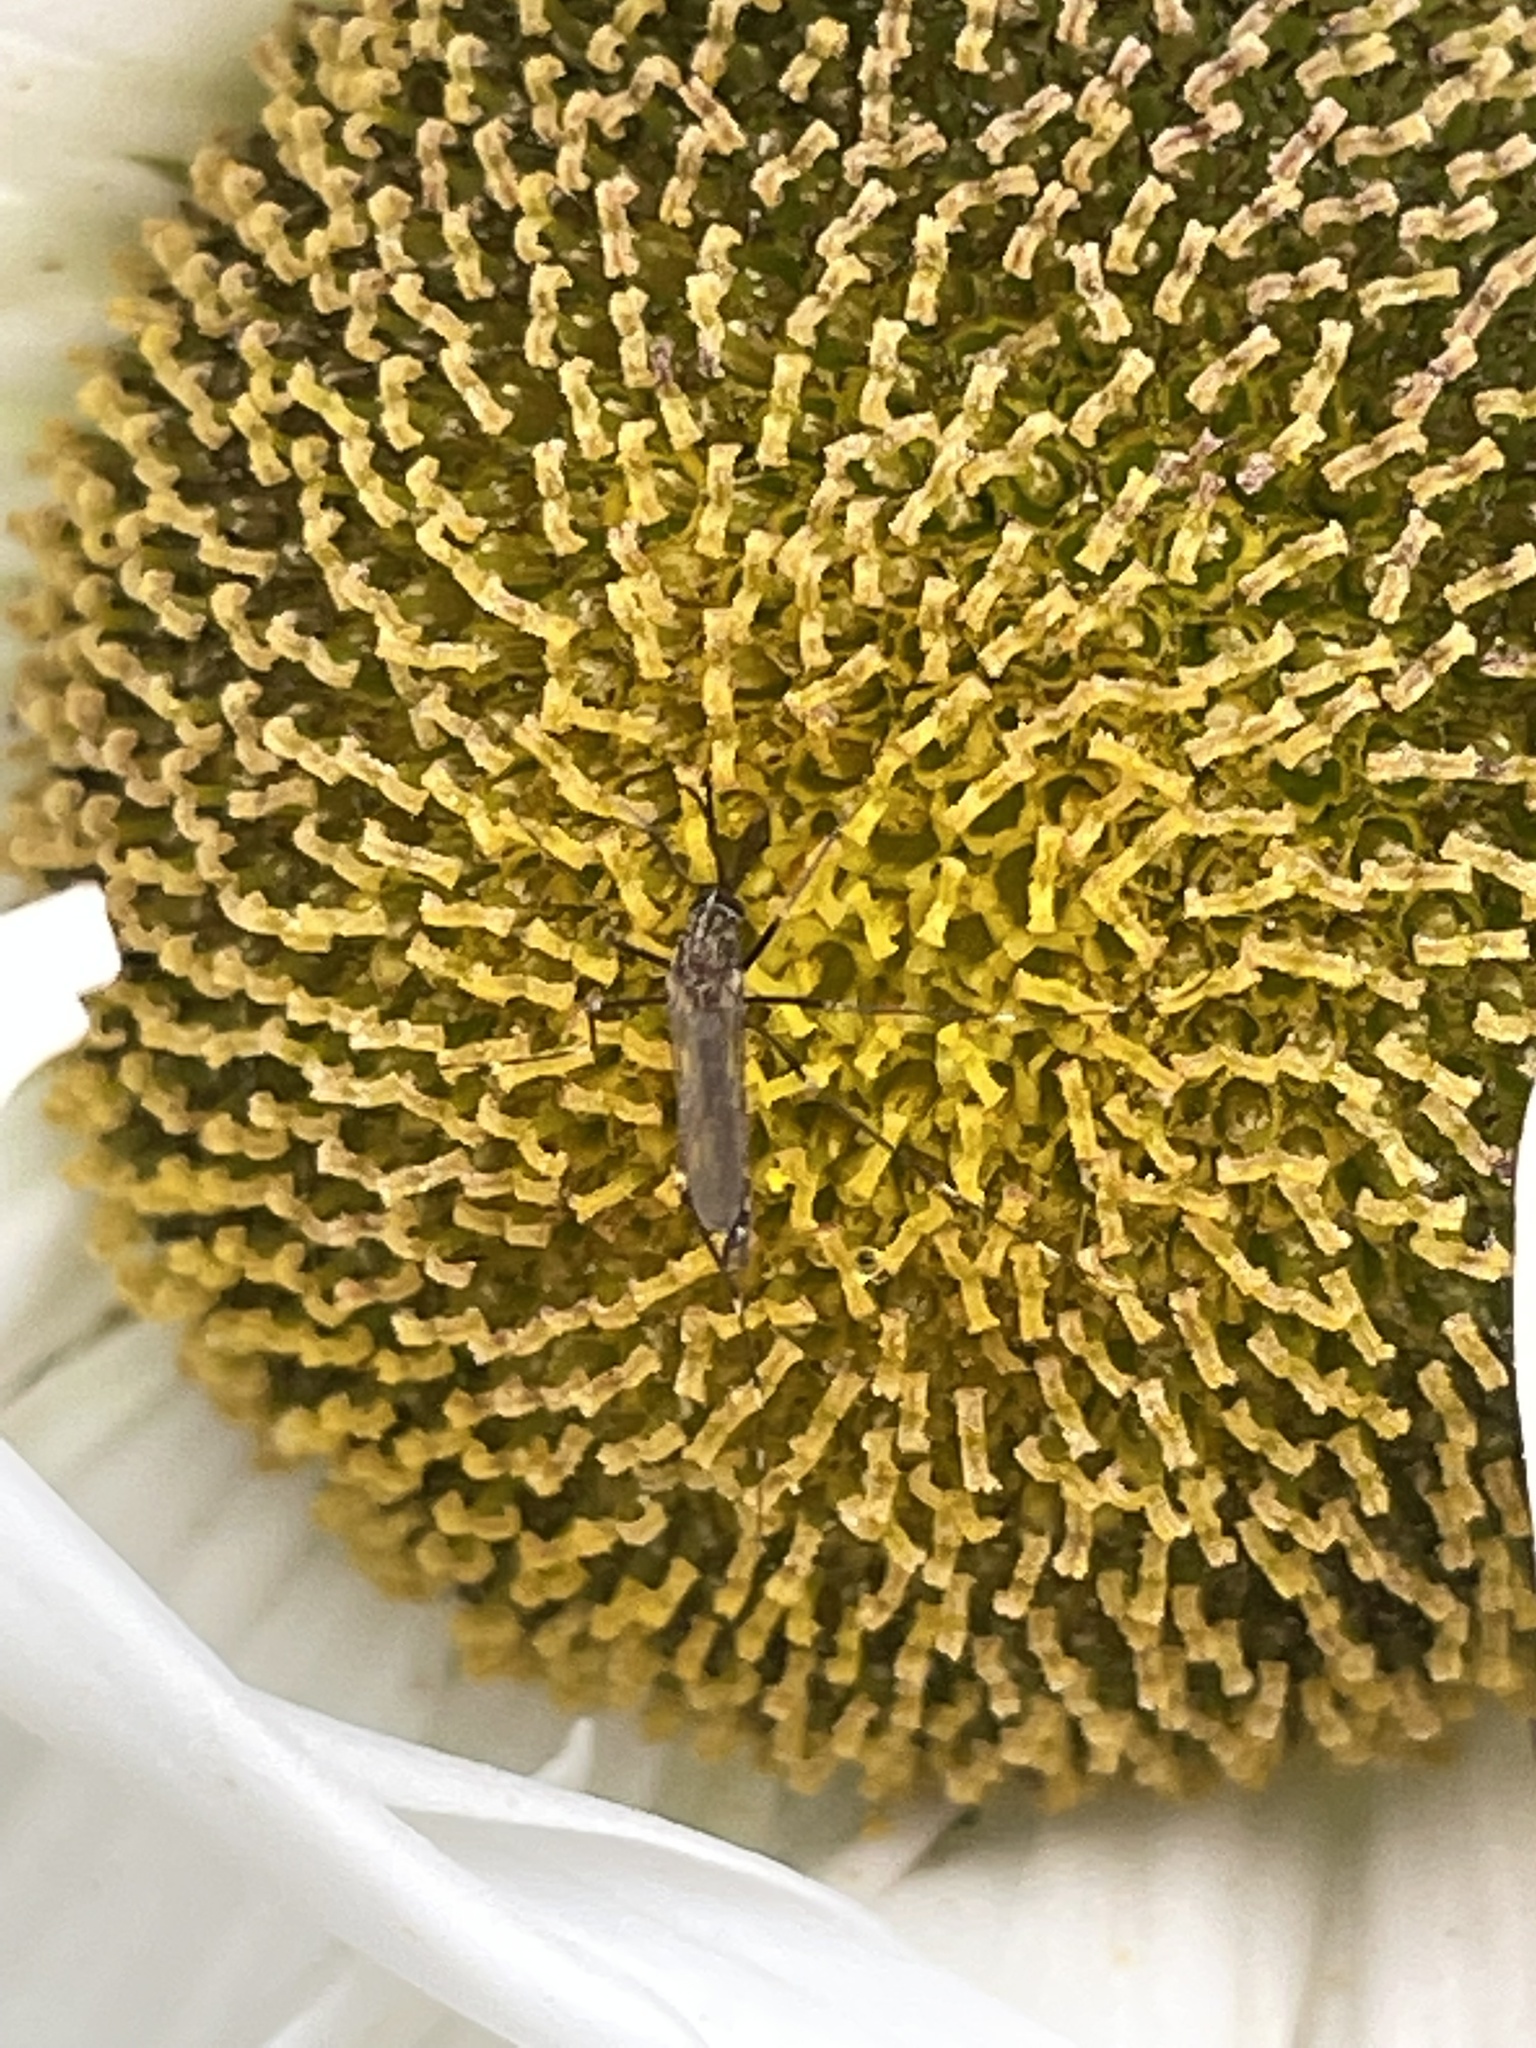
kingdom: Animalia
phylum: Arthropoda
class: Insecta
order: Diptera
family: Culicidae
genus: Aedes
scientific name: Aedes japonicus
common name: Asian bush mosquito
